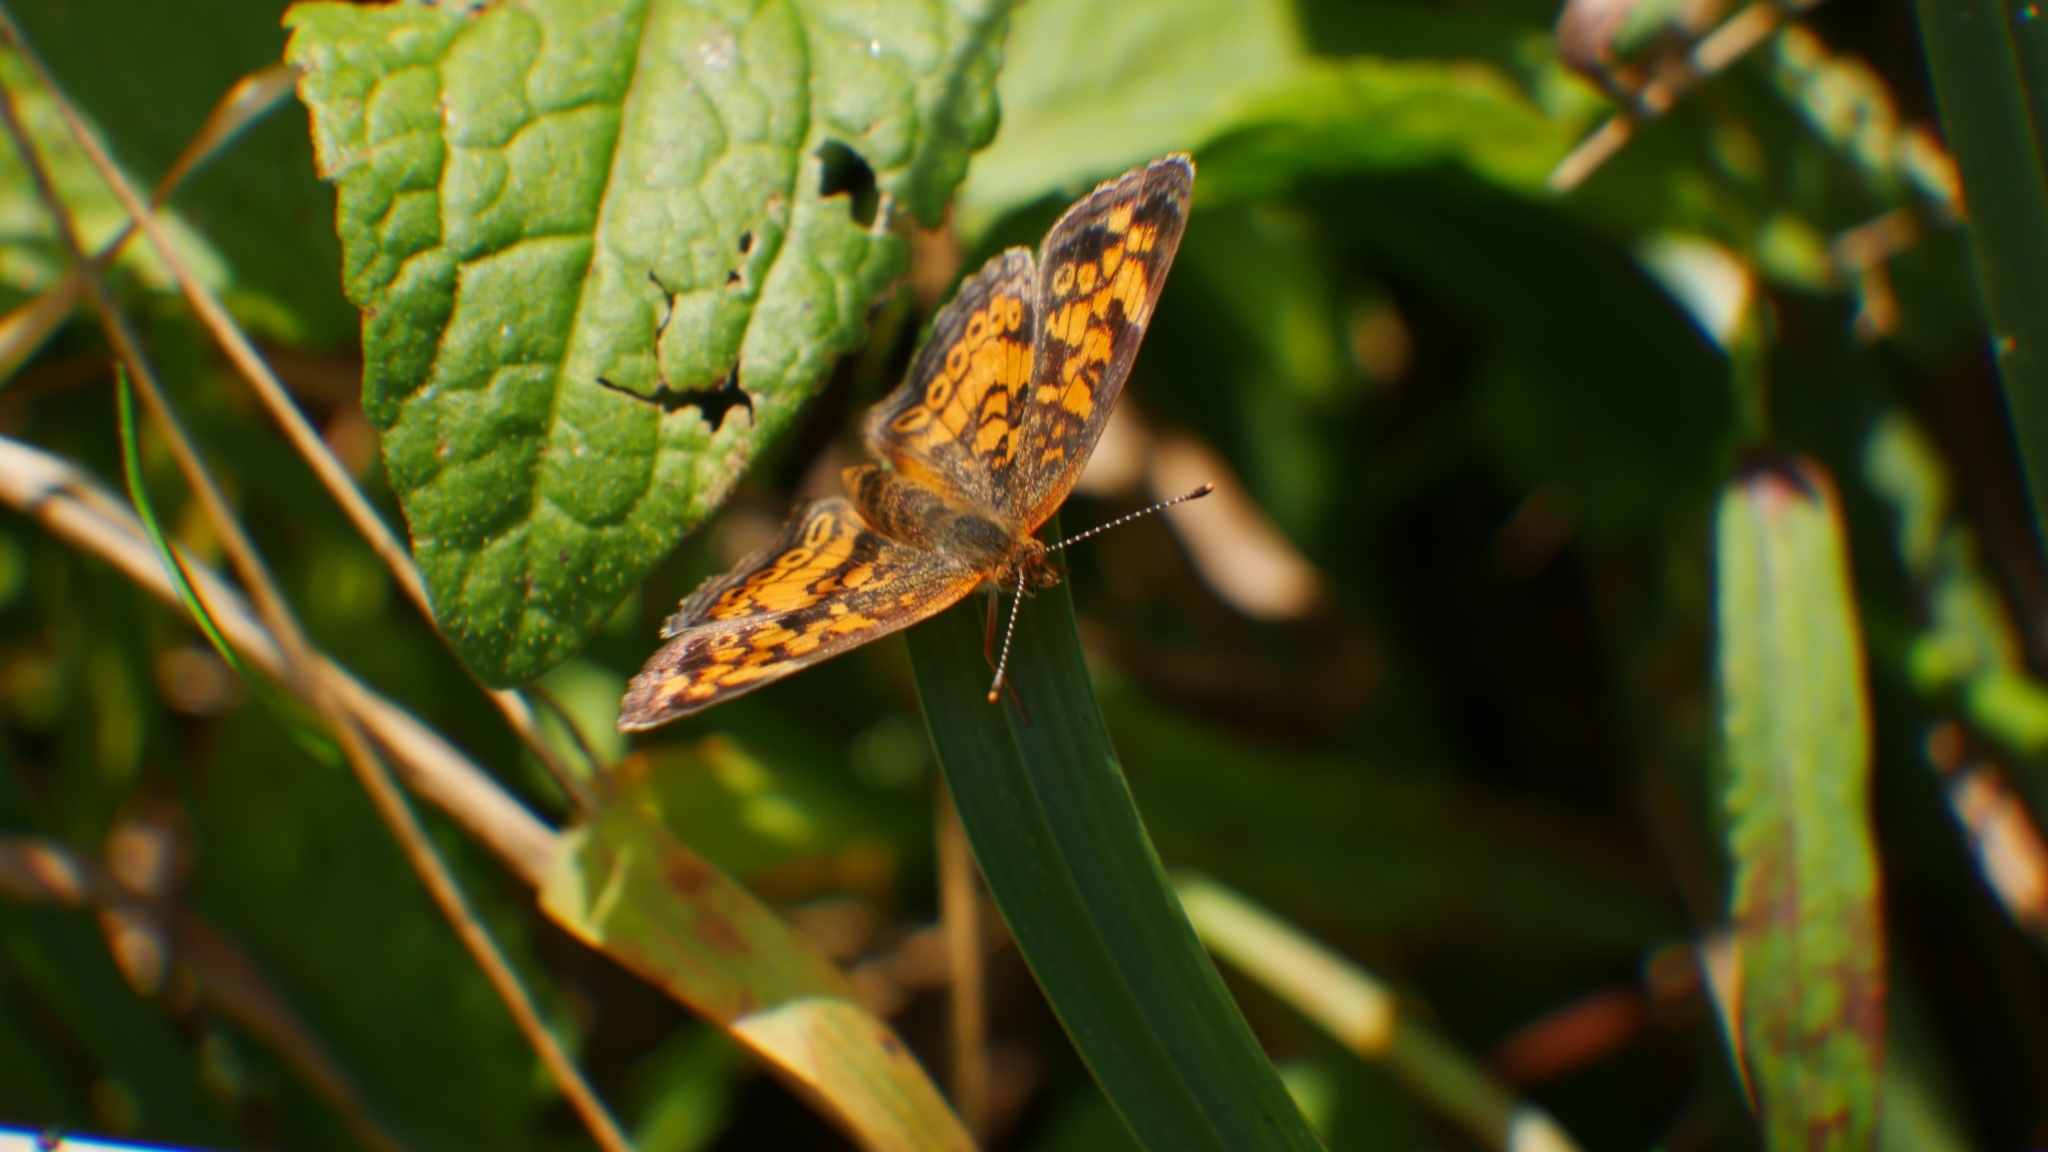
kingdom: Animalia
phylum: Arthropoda
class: Insecta
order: Lepidoptera
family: Nymphalidae
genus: Phyciodes
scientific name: Phyciodes tharos
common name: Pearl crescent
